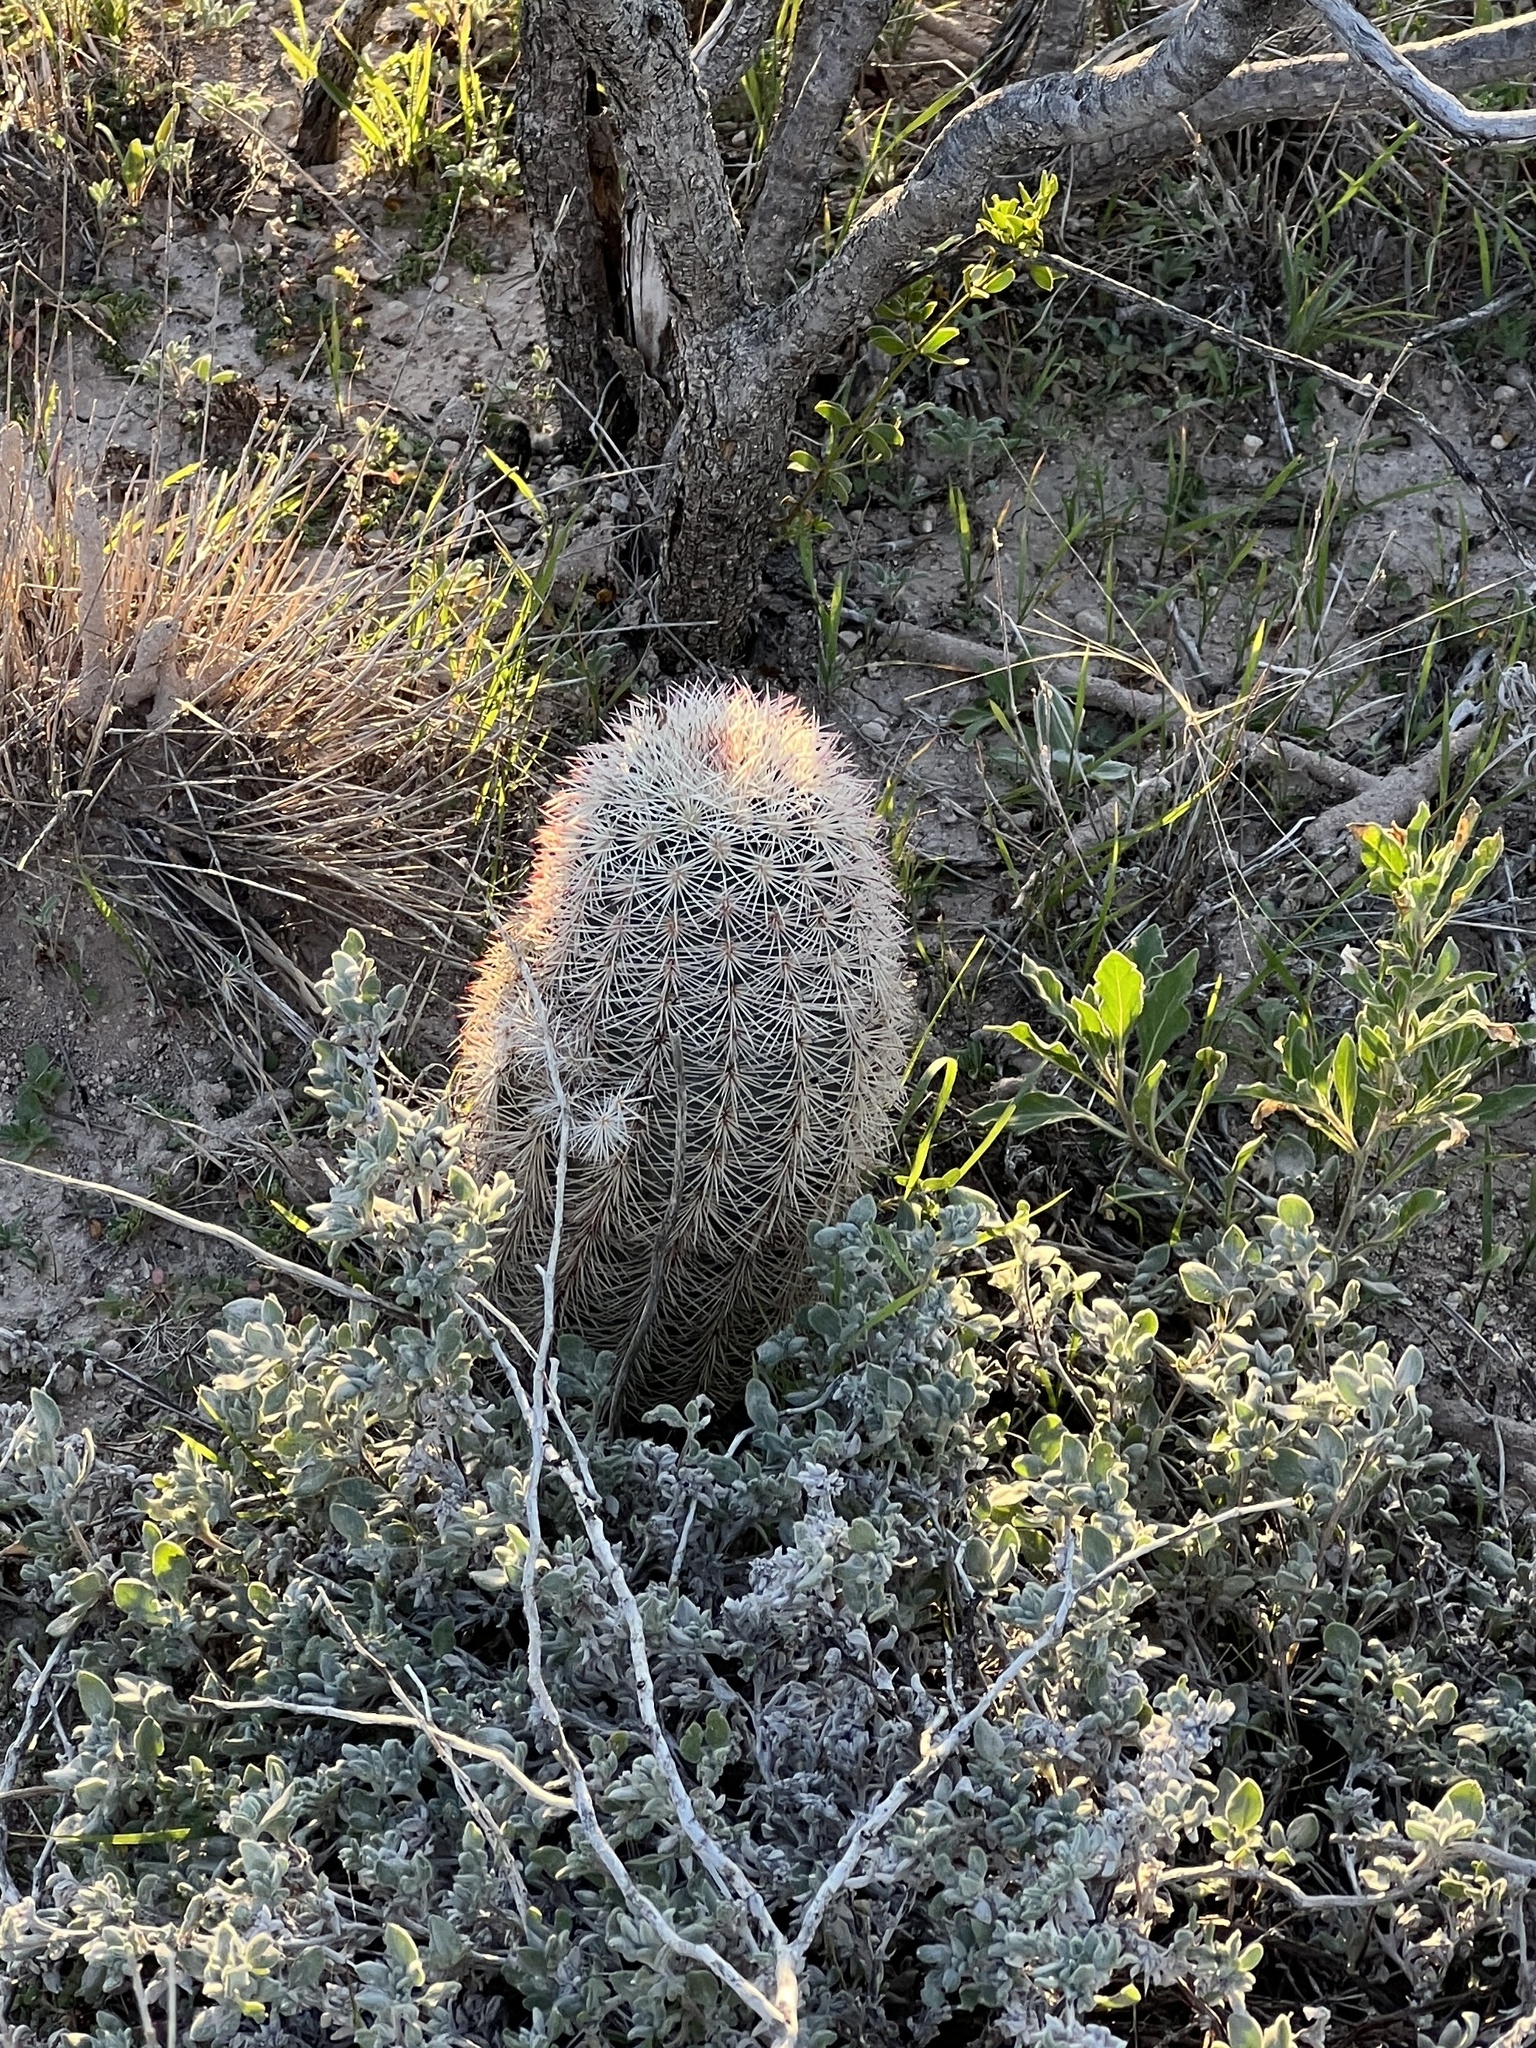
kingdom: Plantae
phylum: Tracheophyta
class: Magnoliopsida
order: Caryophyllales
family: Cactaceae
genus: Echinocereus
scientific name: Echinocereus dasyacanthus
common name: Spiny hedgehog cactus
